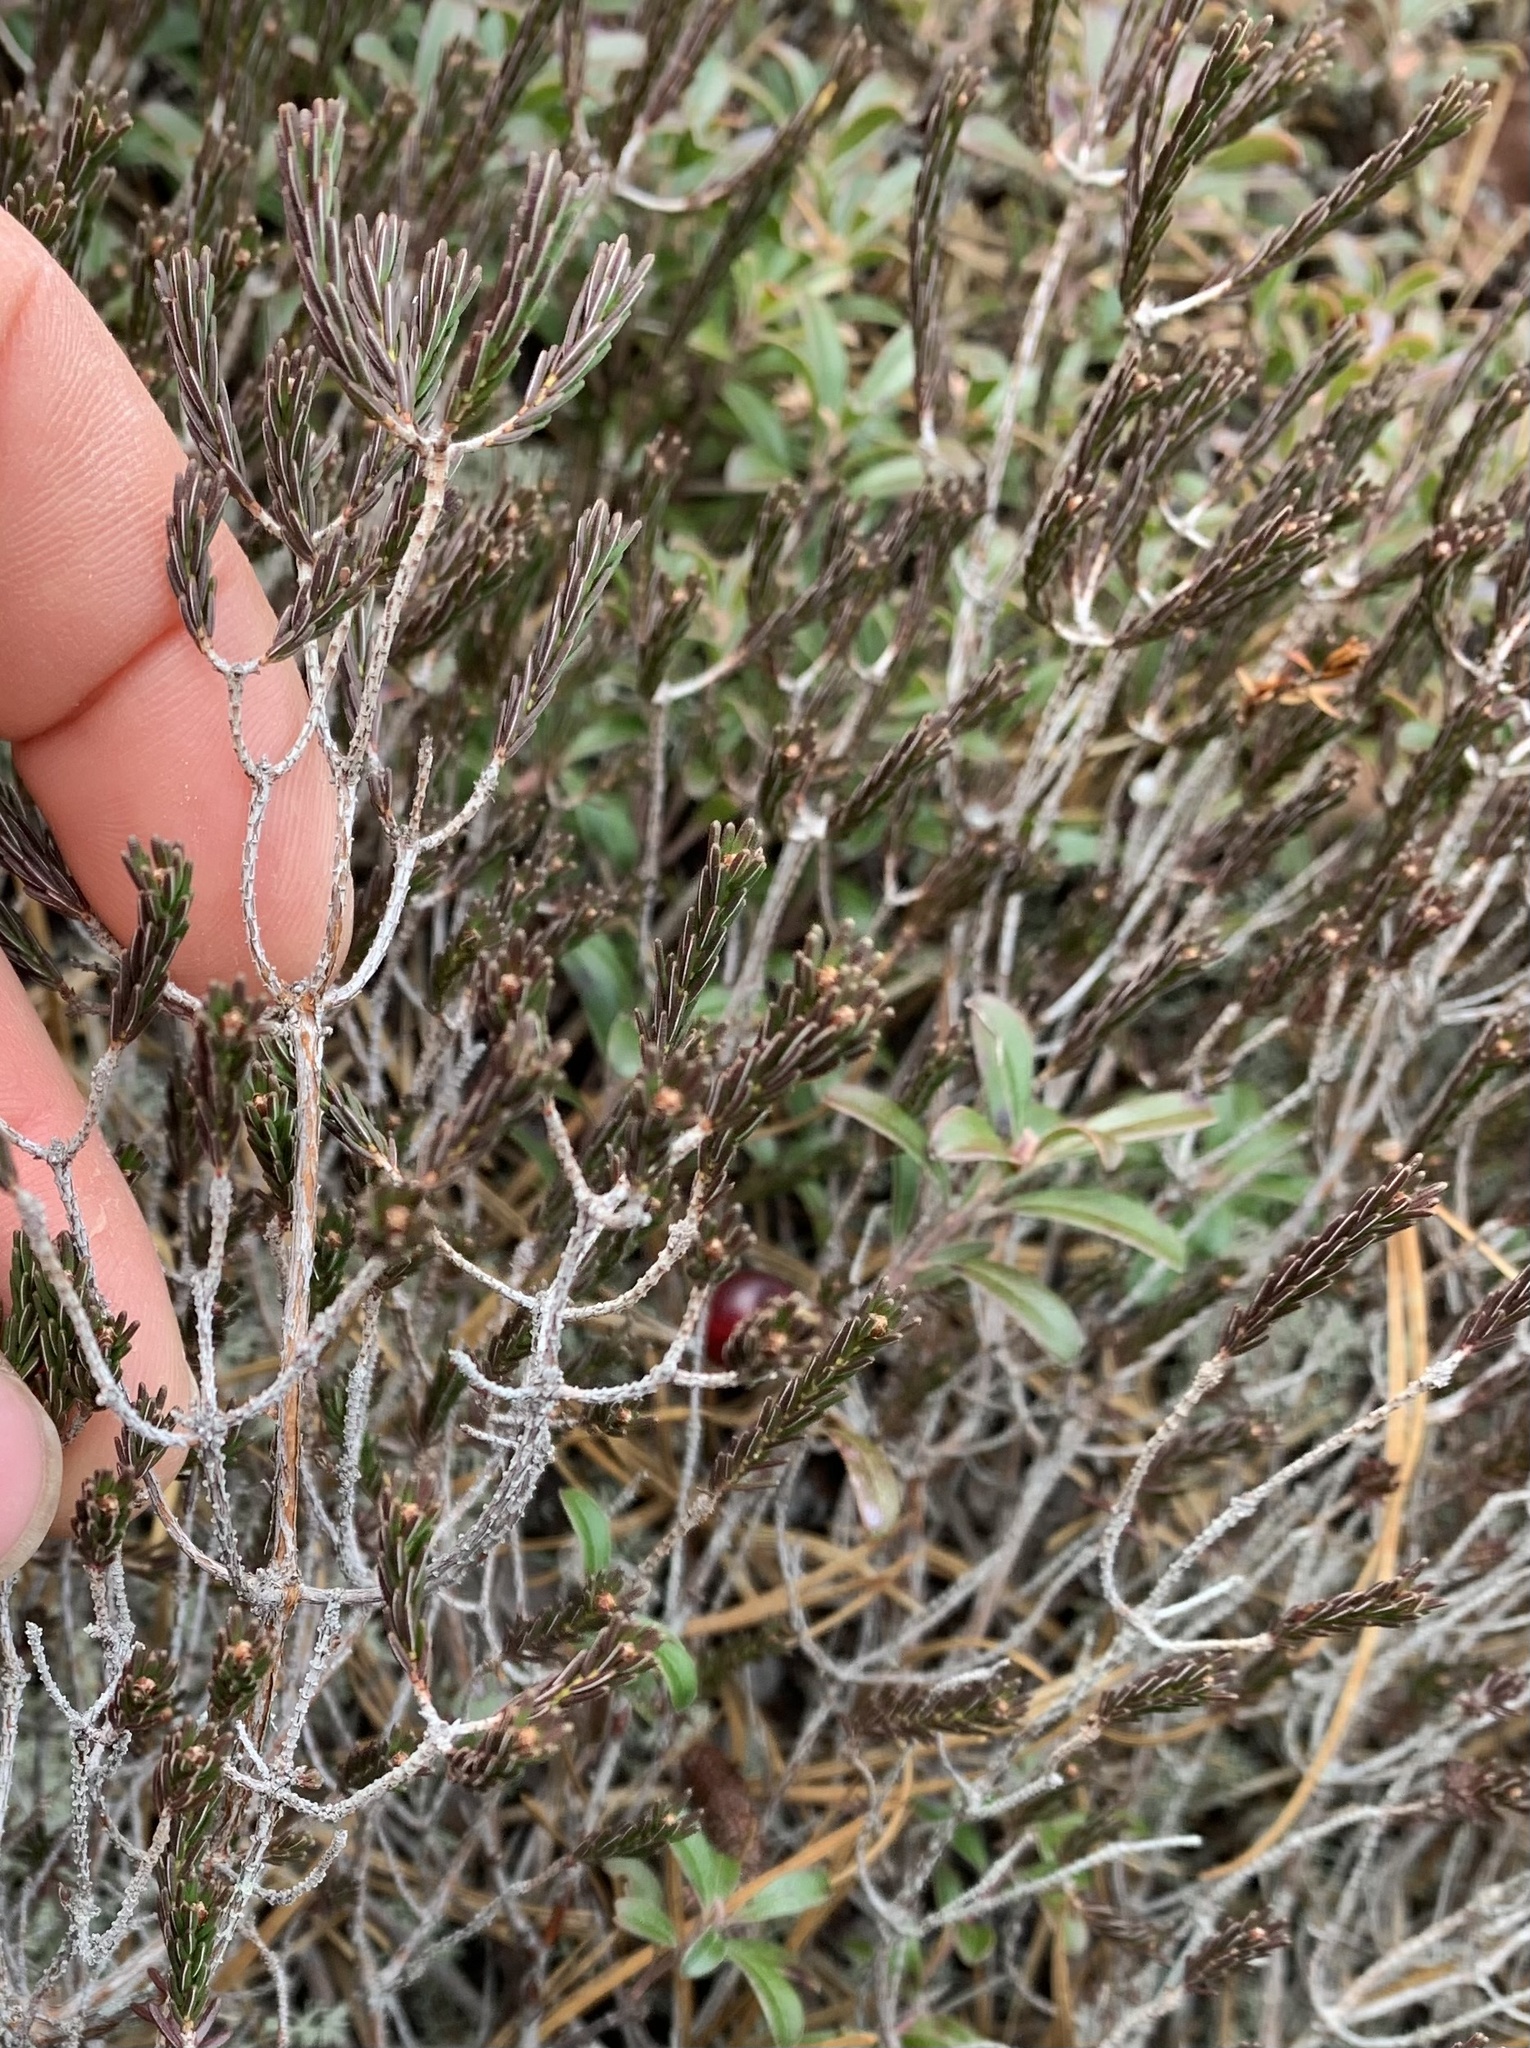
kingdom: Plantae
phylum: Tracheophyta
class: Magnoliopsida
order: Ericales
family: Ericaceae
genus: Corema
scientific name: Corema conradii
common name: Broom-crowberry
